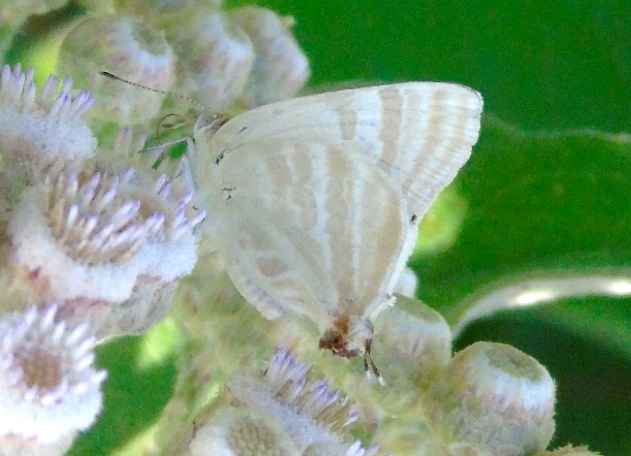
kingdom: Animalia
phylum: Arthropoda
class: Insecta
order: Lepidoptera
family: Lycaenidae
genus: Dolymorpha
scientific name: Dolymorpha jada
